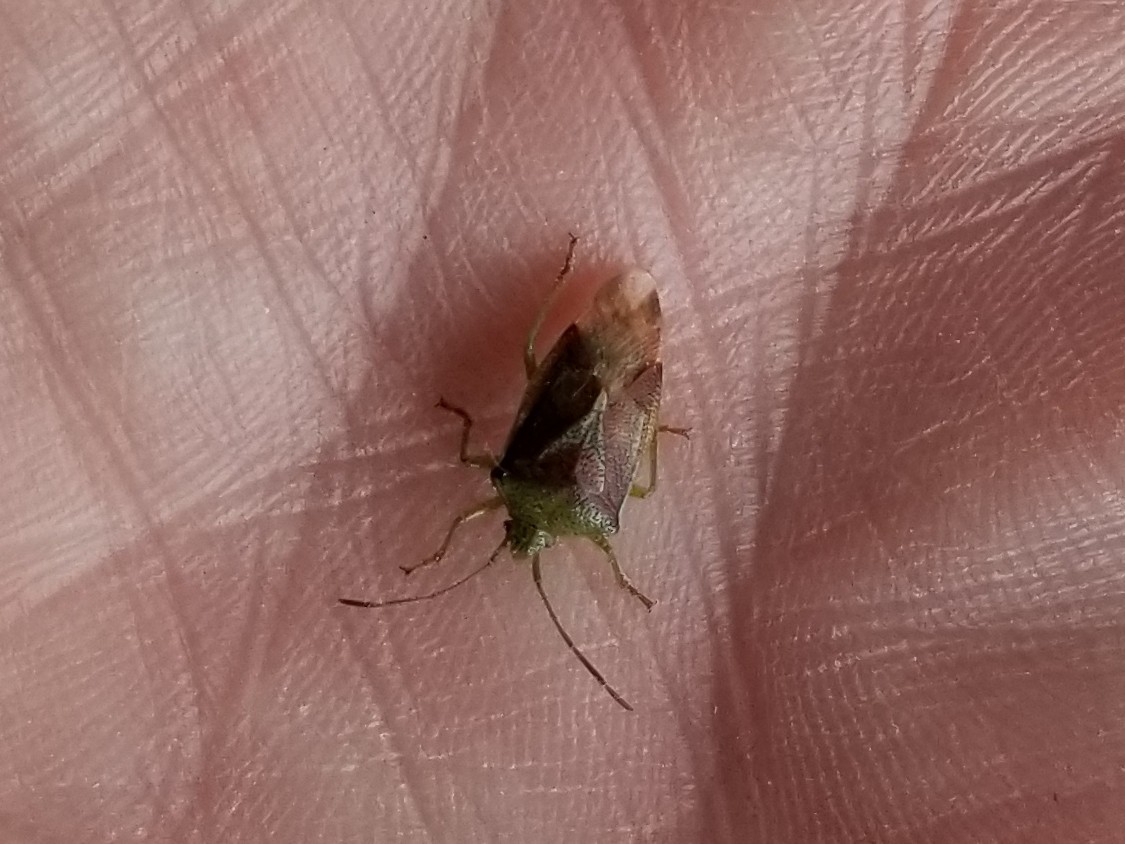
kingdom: Animalia
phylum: Arthropoda
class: Insecta
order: Hemiptera
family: Acanthosomatidae
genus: Elasmostethus
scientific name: Elasmostethus interstinctus
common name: Birch shieldbug
